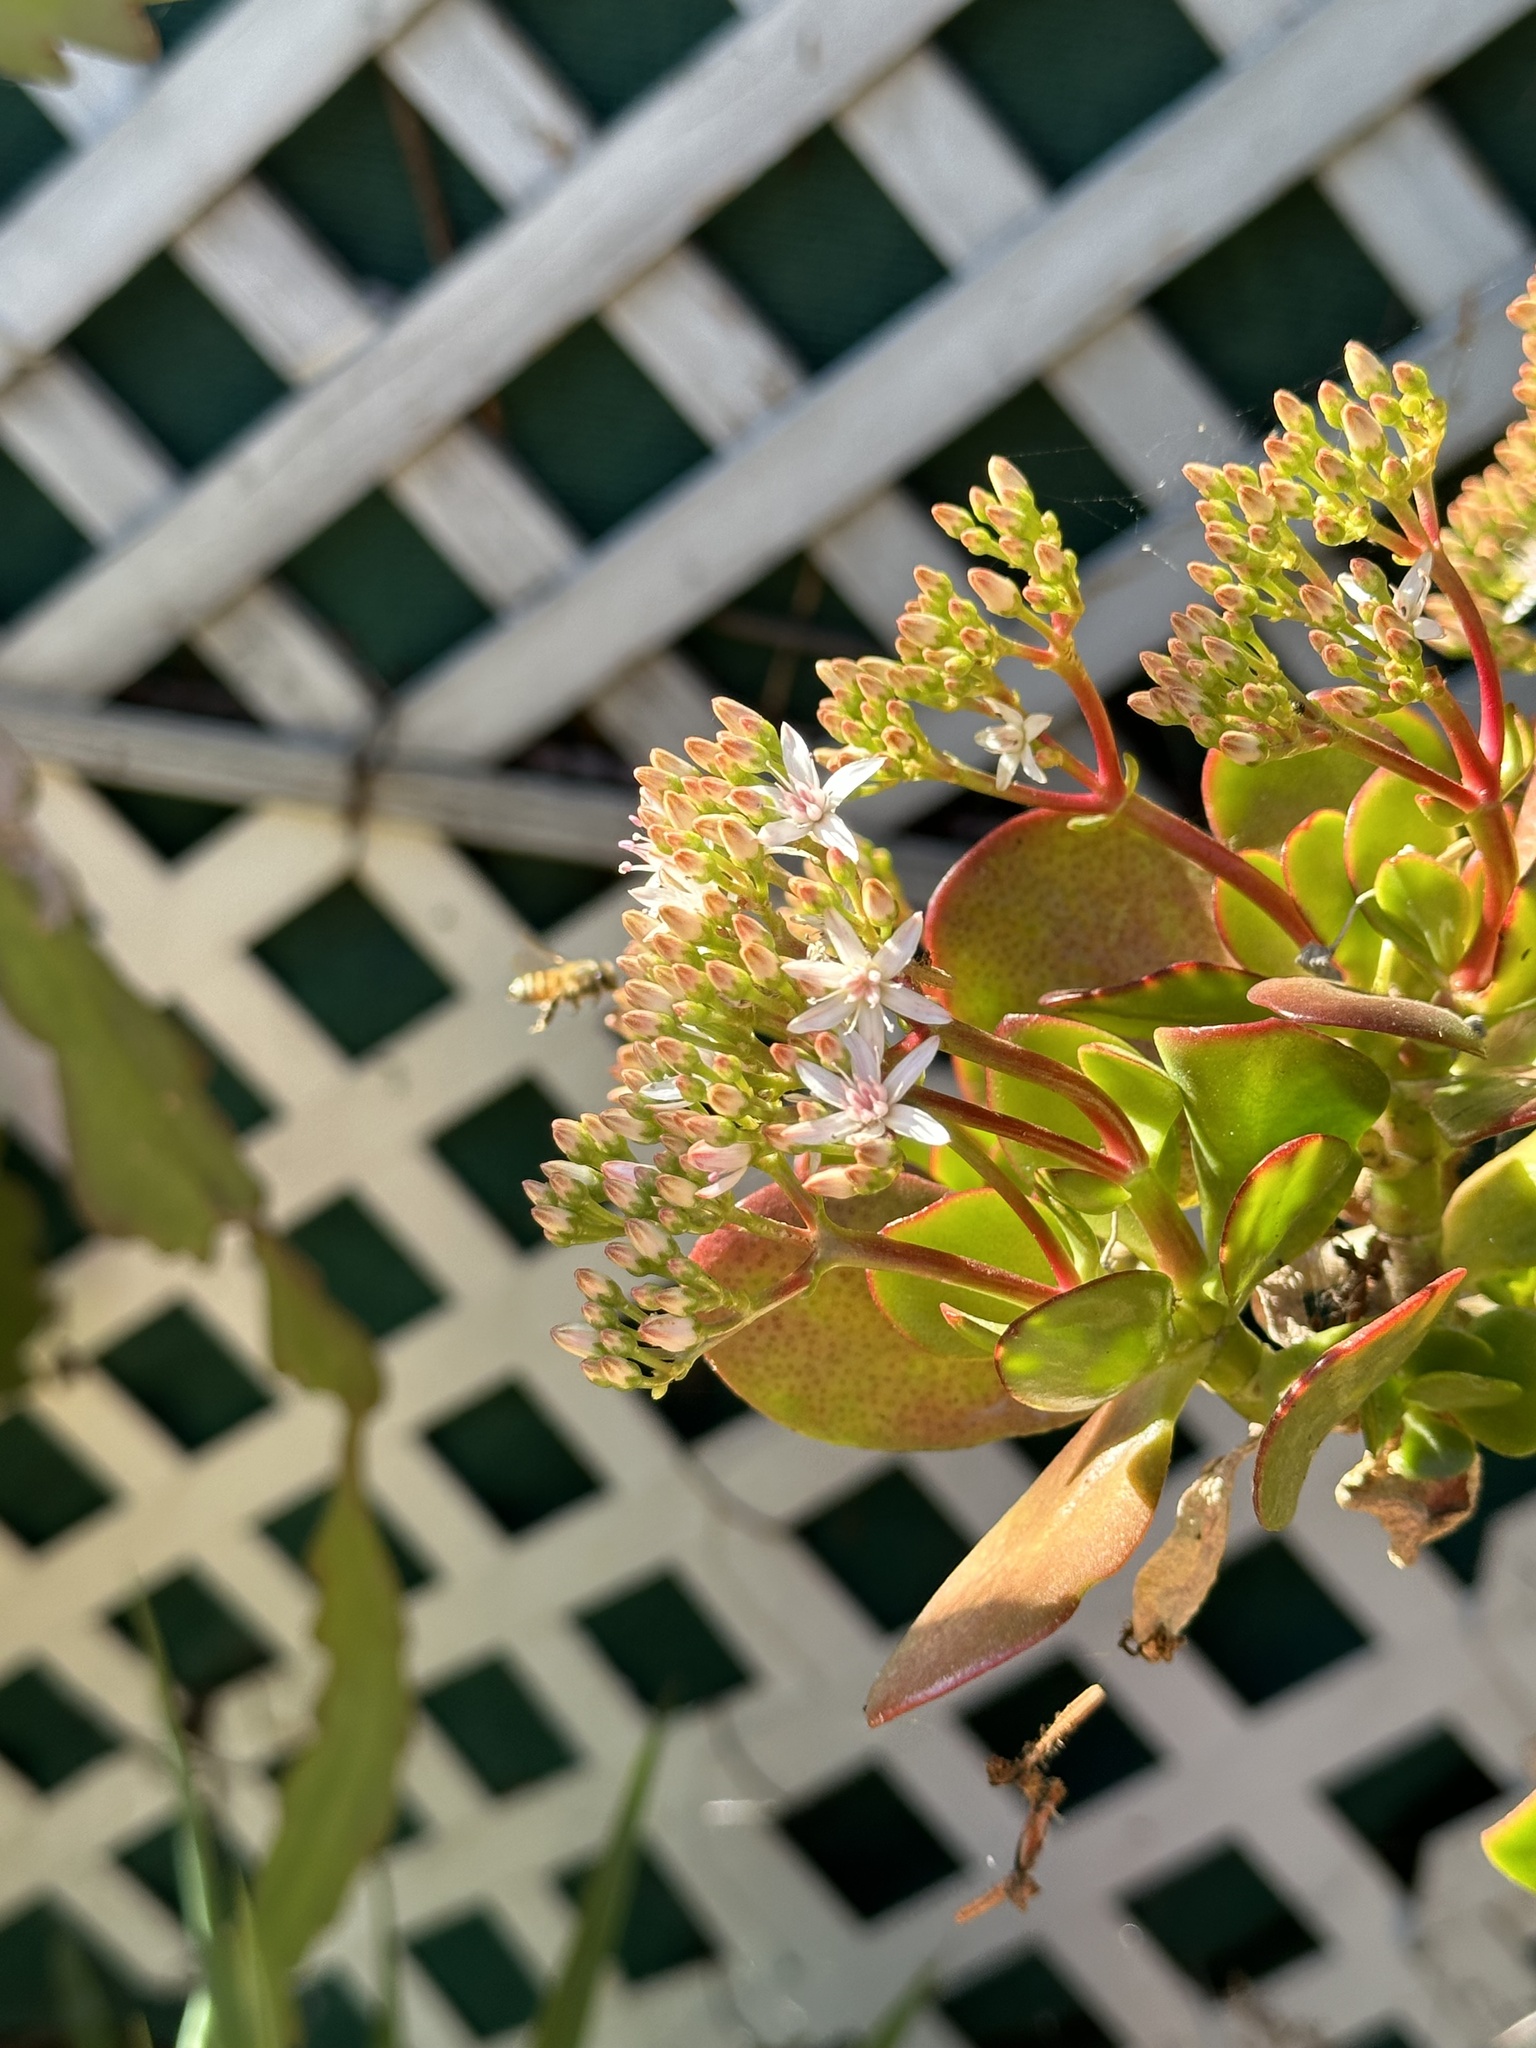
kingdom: Animalia
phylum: Arthropoda
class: Insecta
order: Hymenoptera
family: Apidae
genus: Apis
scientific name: Apis mellifera
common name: Honey bee
